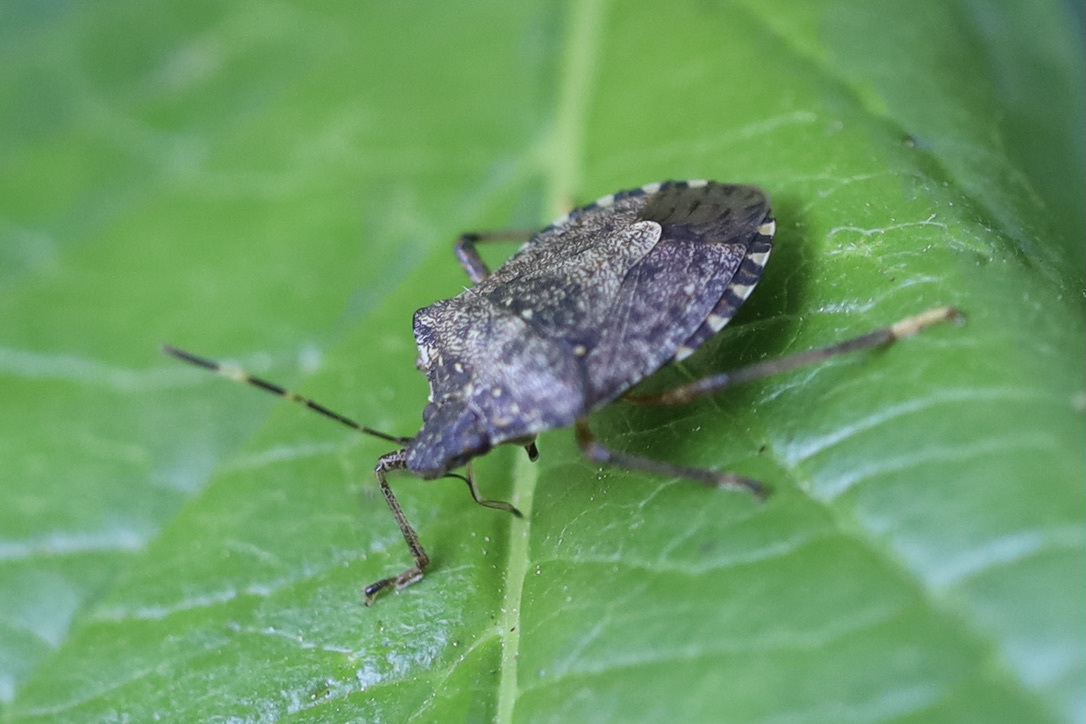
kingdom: Animalia
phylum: Arthropoda
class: Insecta
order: Hemiptera
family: Pentatomidae
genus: Halyomorpha
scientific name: Halyomorpha halys
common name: Brown marmorated stink bug
